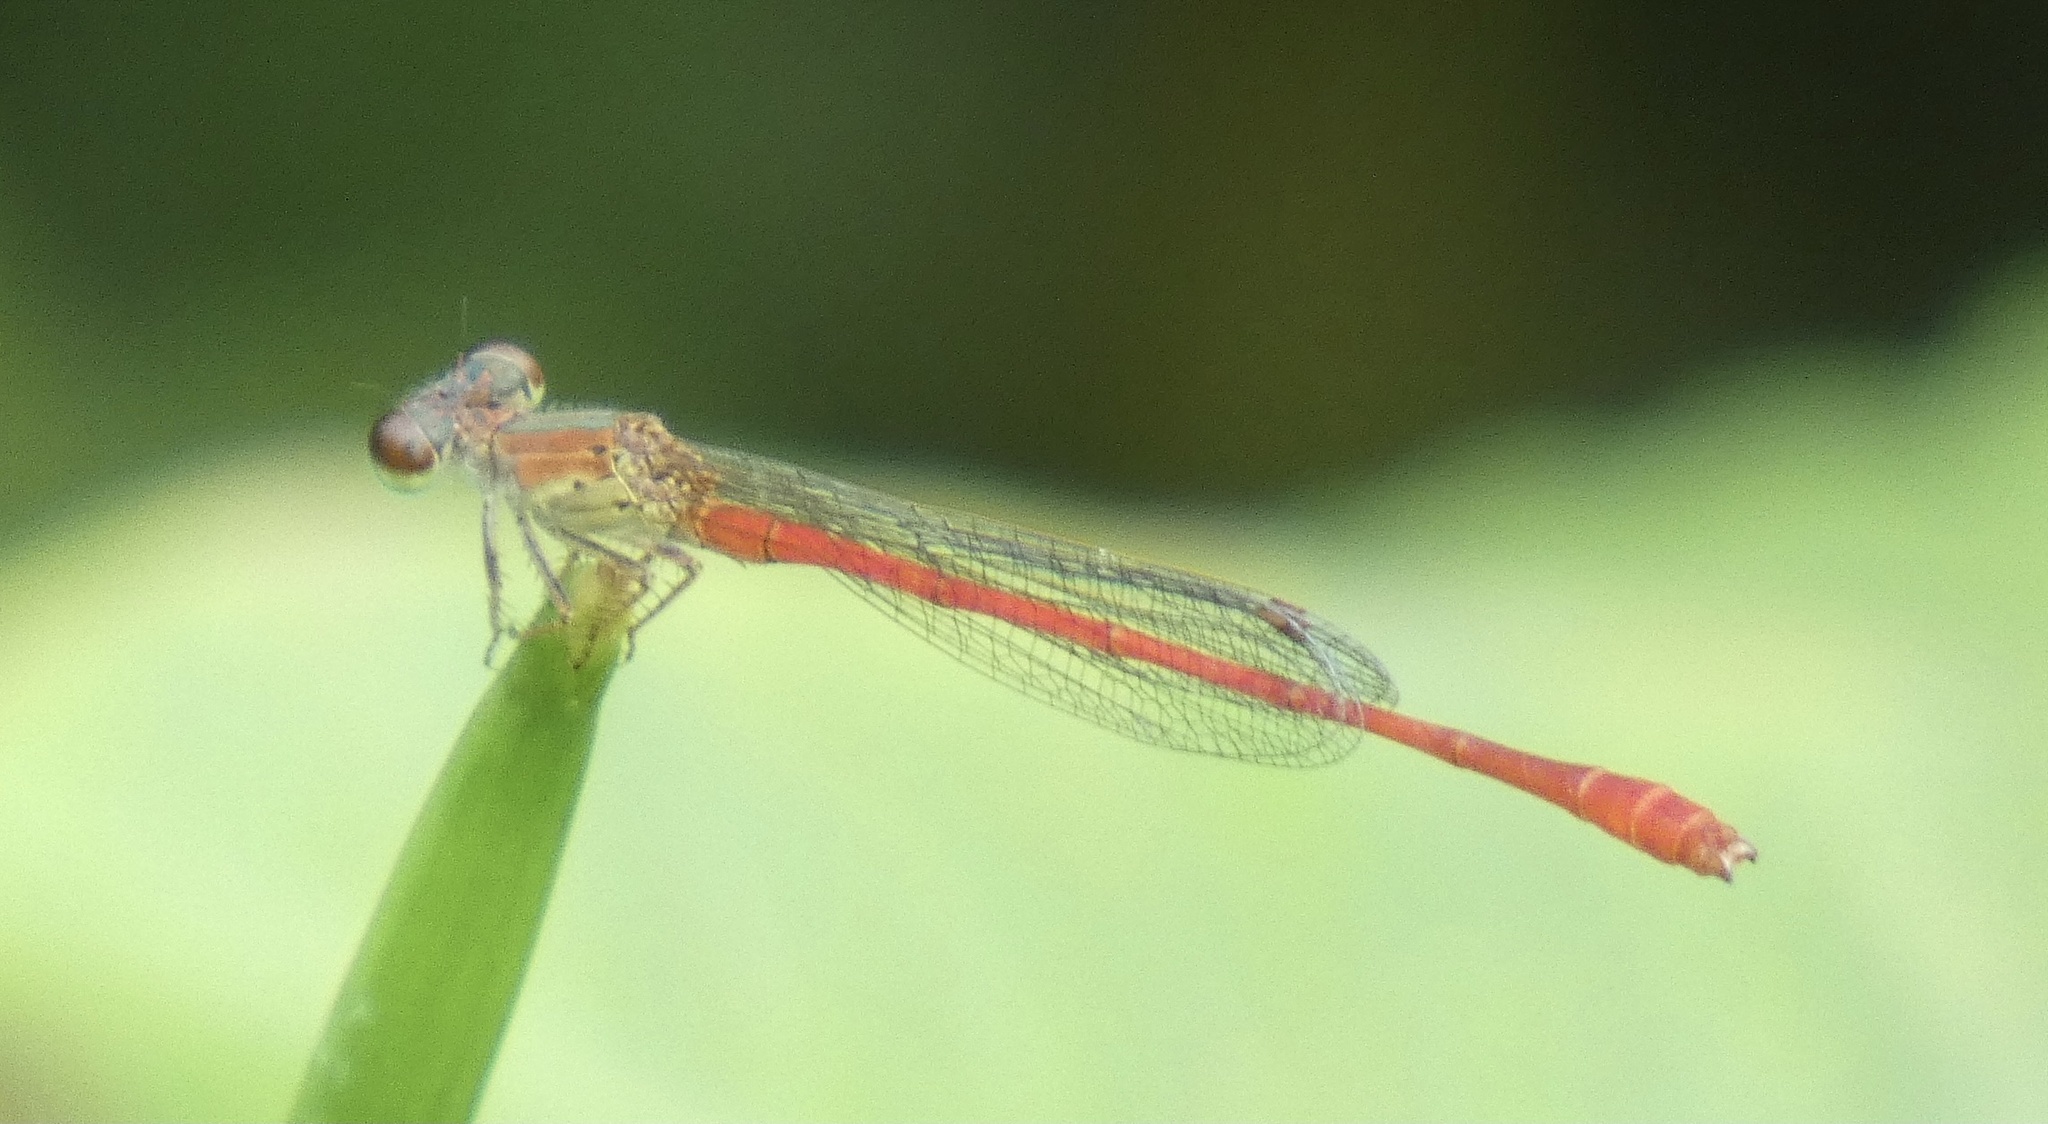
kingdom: Animalia
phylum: Arthropoda
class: Insecta
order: Odonata
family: Coenagrionidae
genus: Telebasis
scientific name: Telebasis corallina
